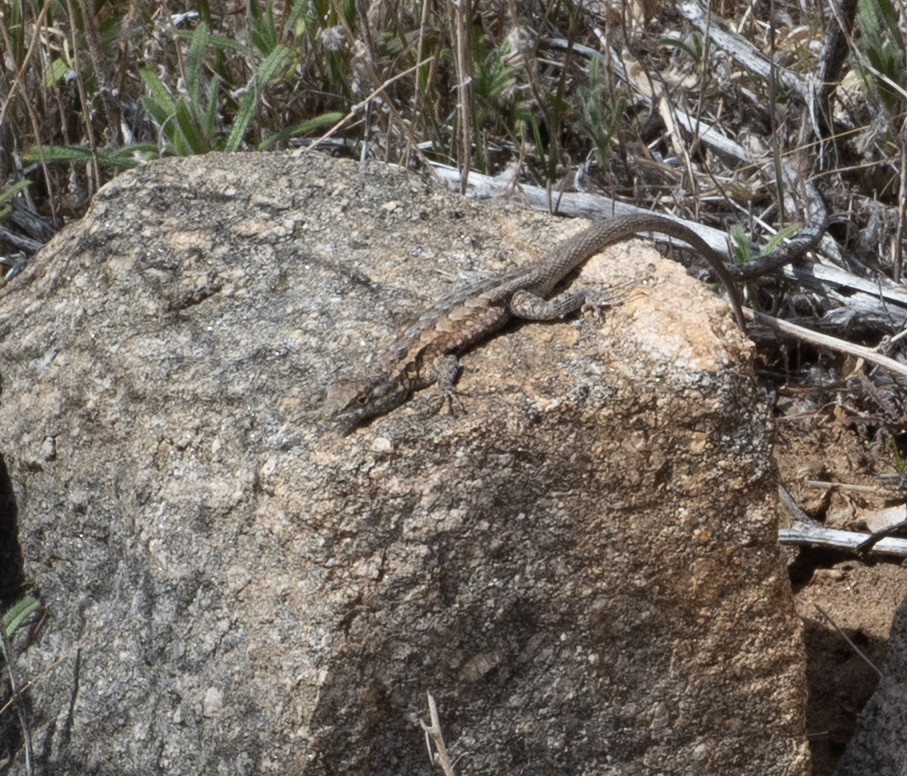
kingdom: Animalia
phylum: Chordata
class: Squamata
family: Phrynosomatidae
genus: Uta
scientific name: Uta stansburiana
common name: Side-blotched lizard
